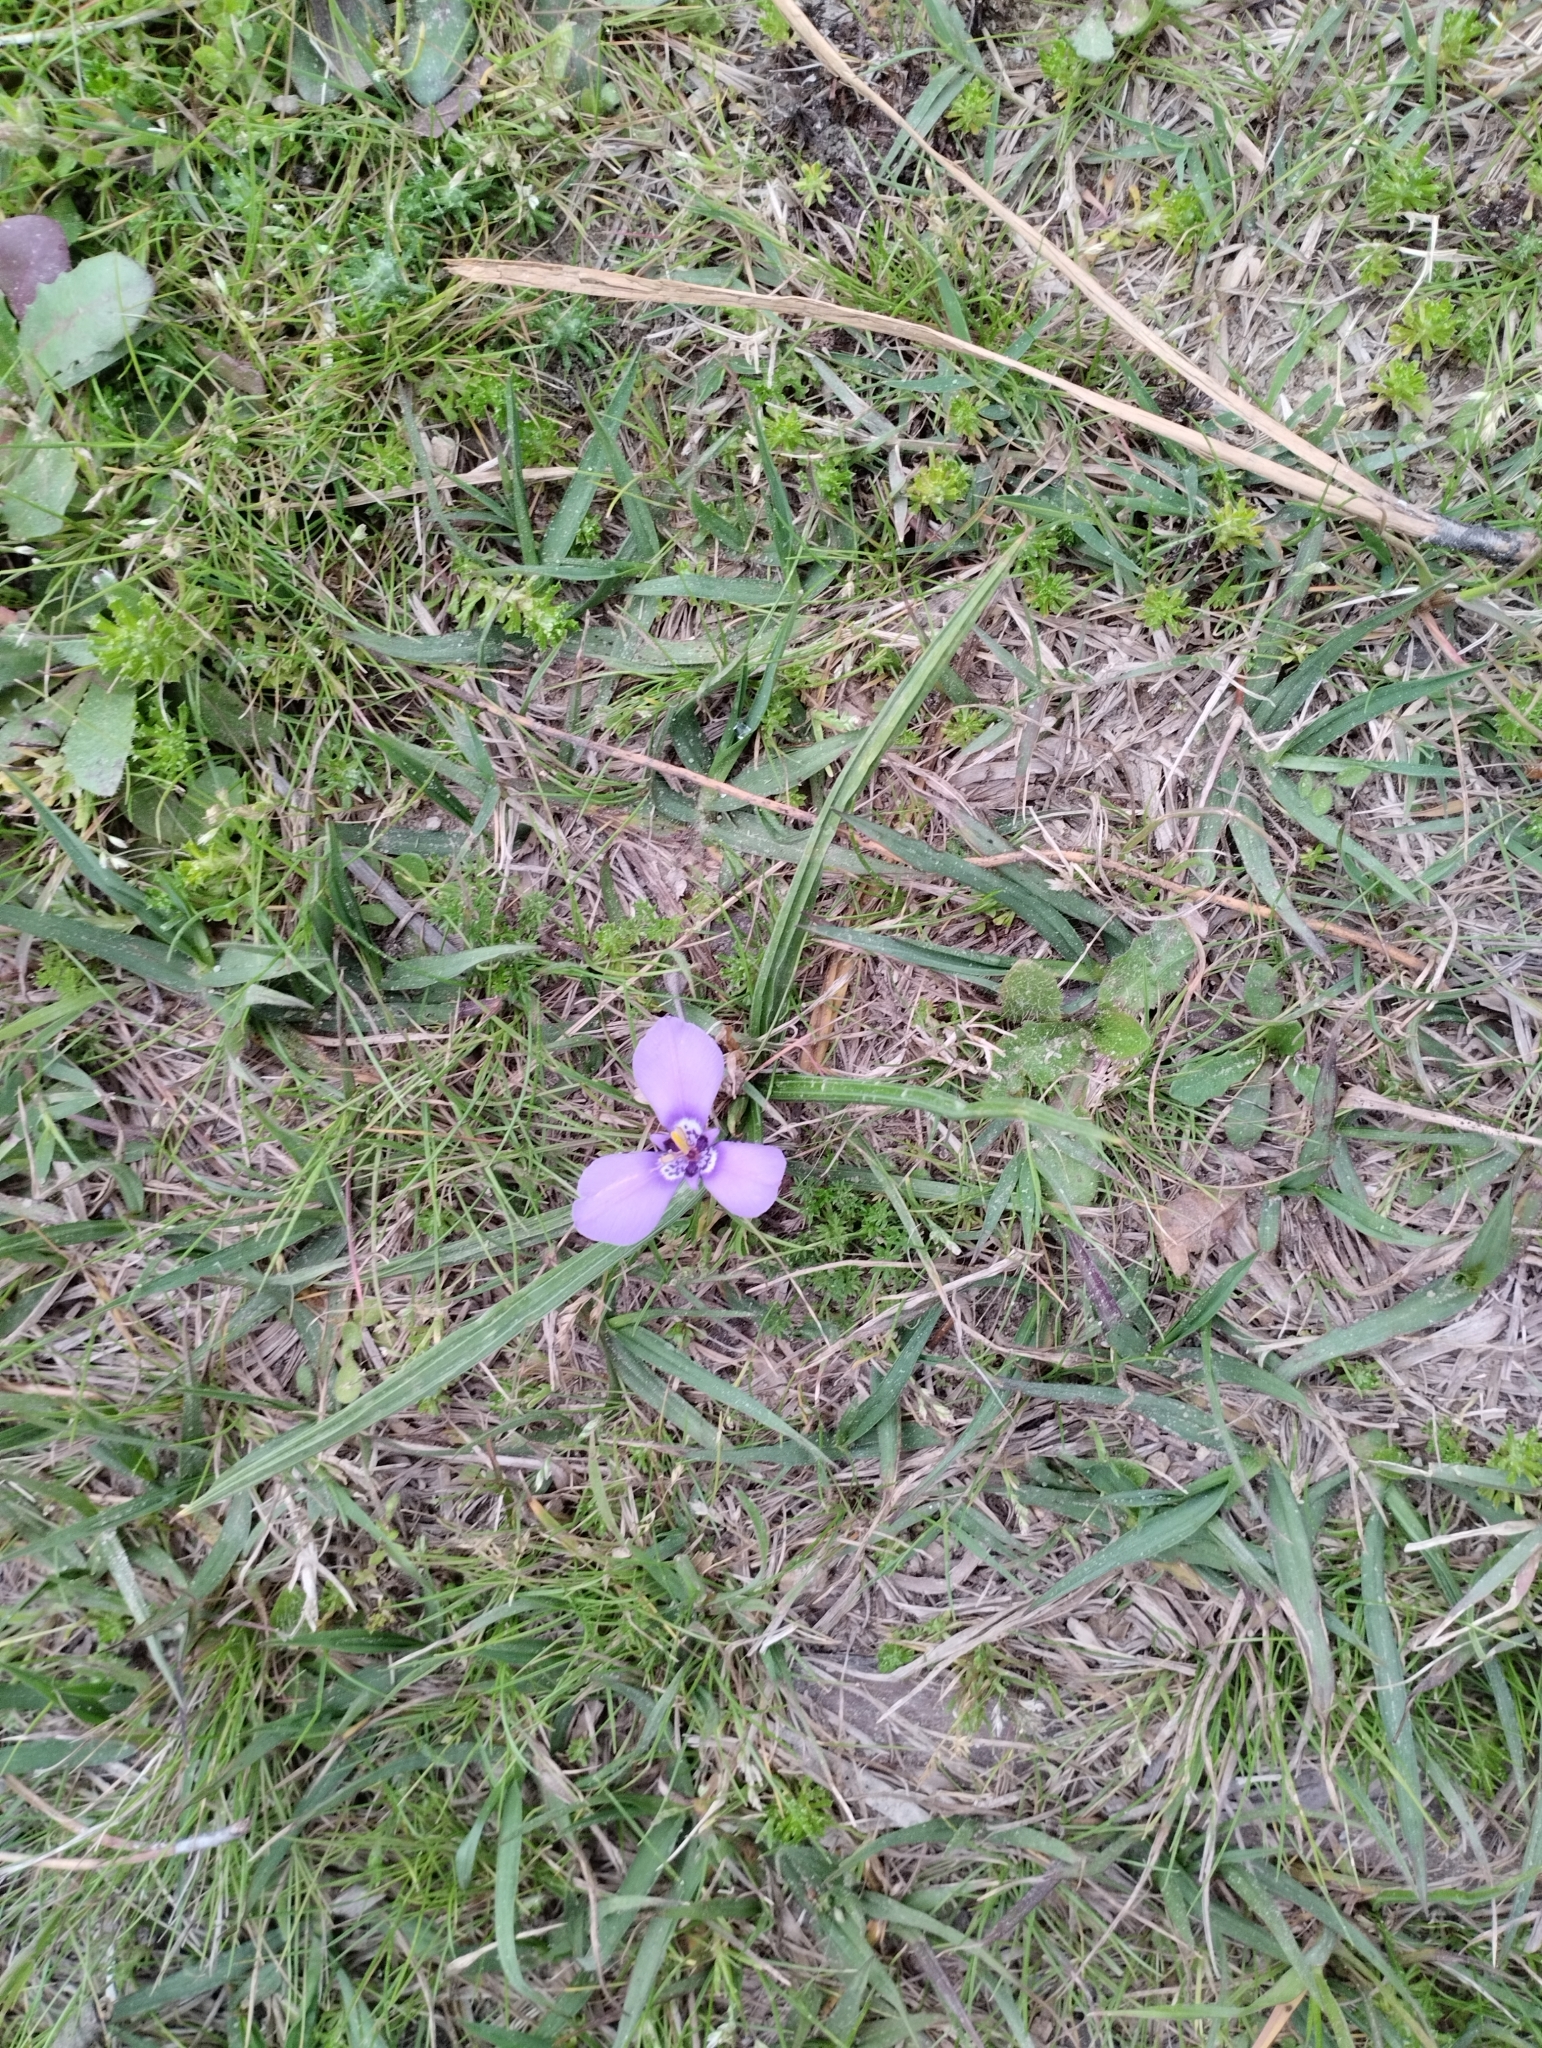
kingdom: Plantae
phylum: Tracheophyta
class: Liliopsida
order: Asparagales
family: Iridaceae
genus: Herbertia
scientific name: Herbertia lahue
